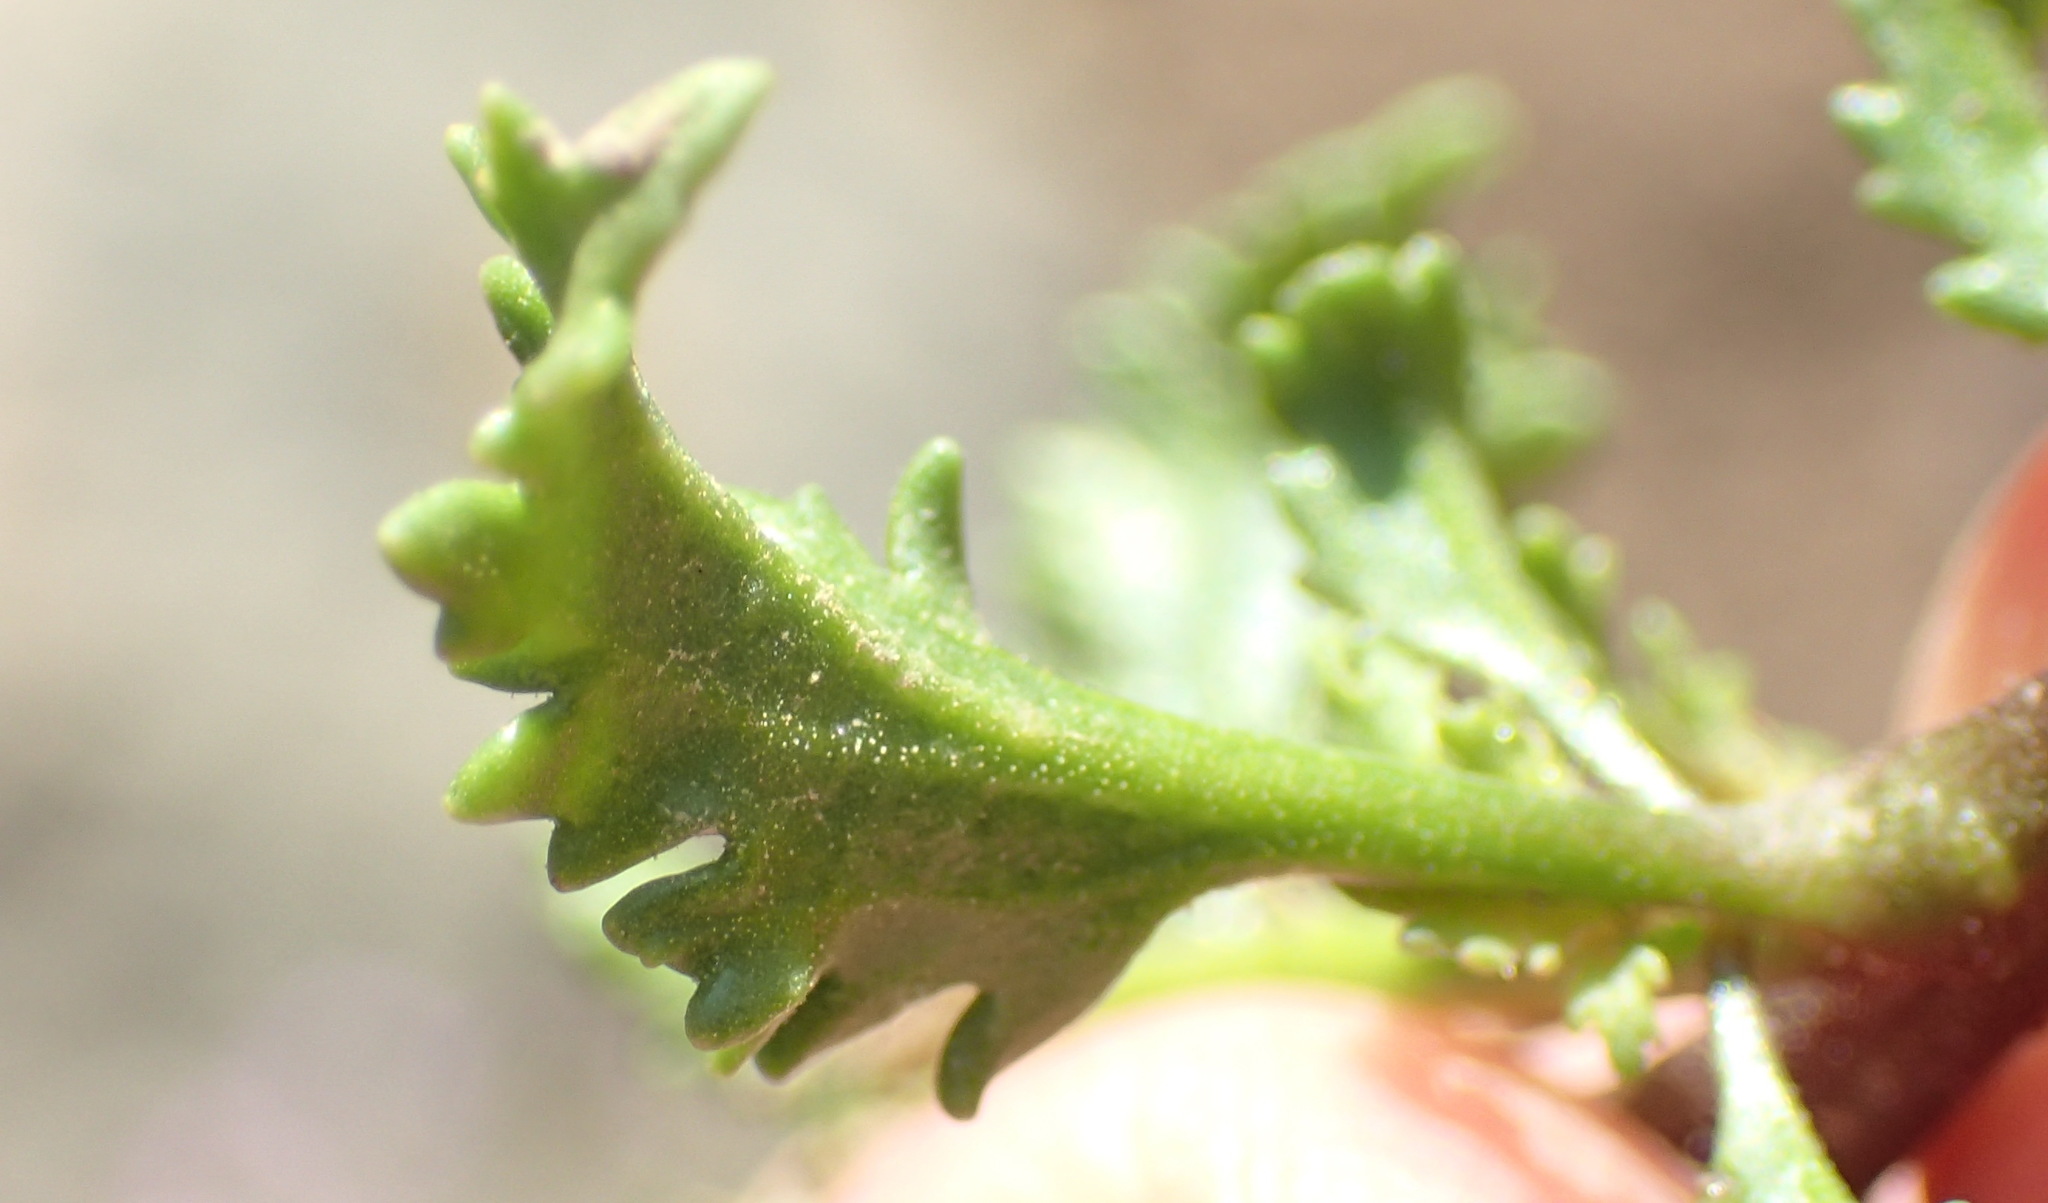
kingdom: Plantae
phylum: Tracheophyta
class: Magnoliopsida
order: Lamiales
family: Scrophulariaceae
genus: Sutera
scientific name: Sutera foetida
